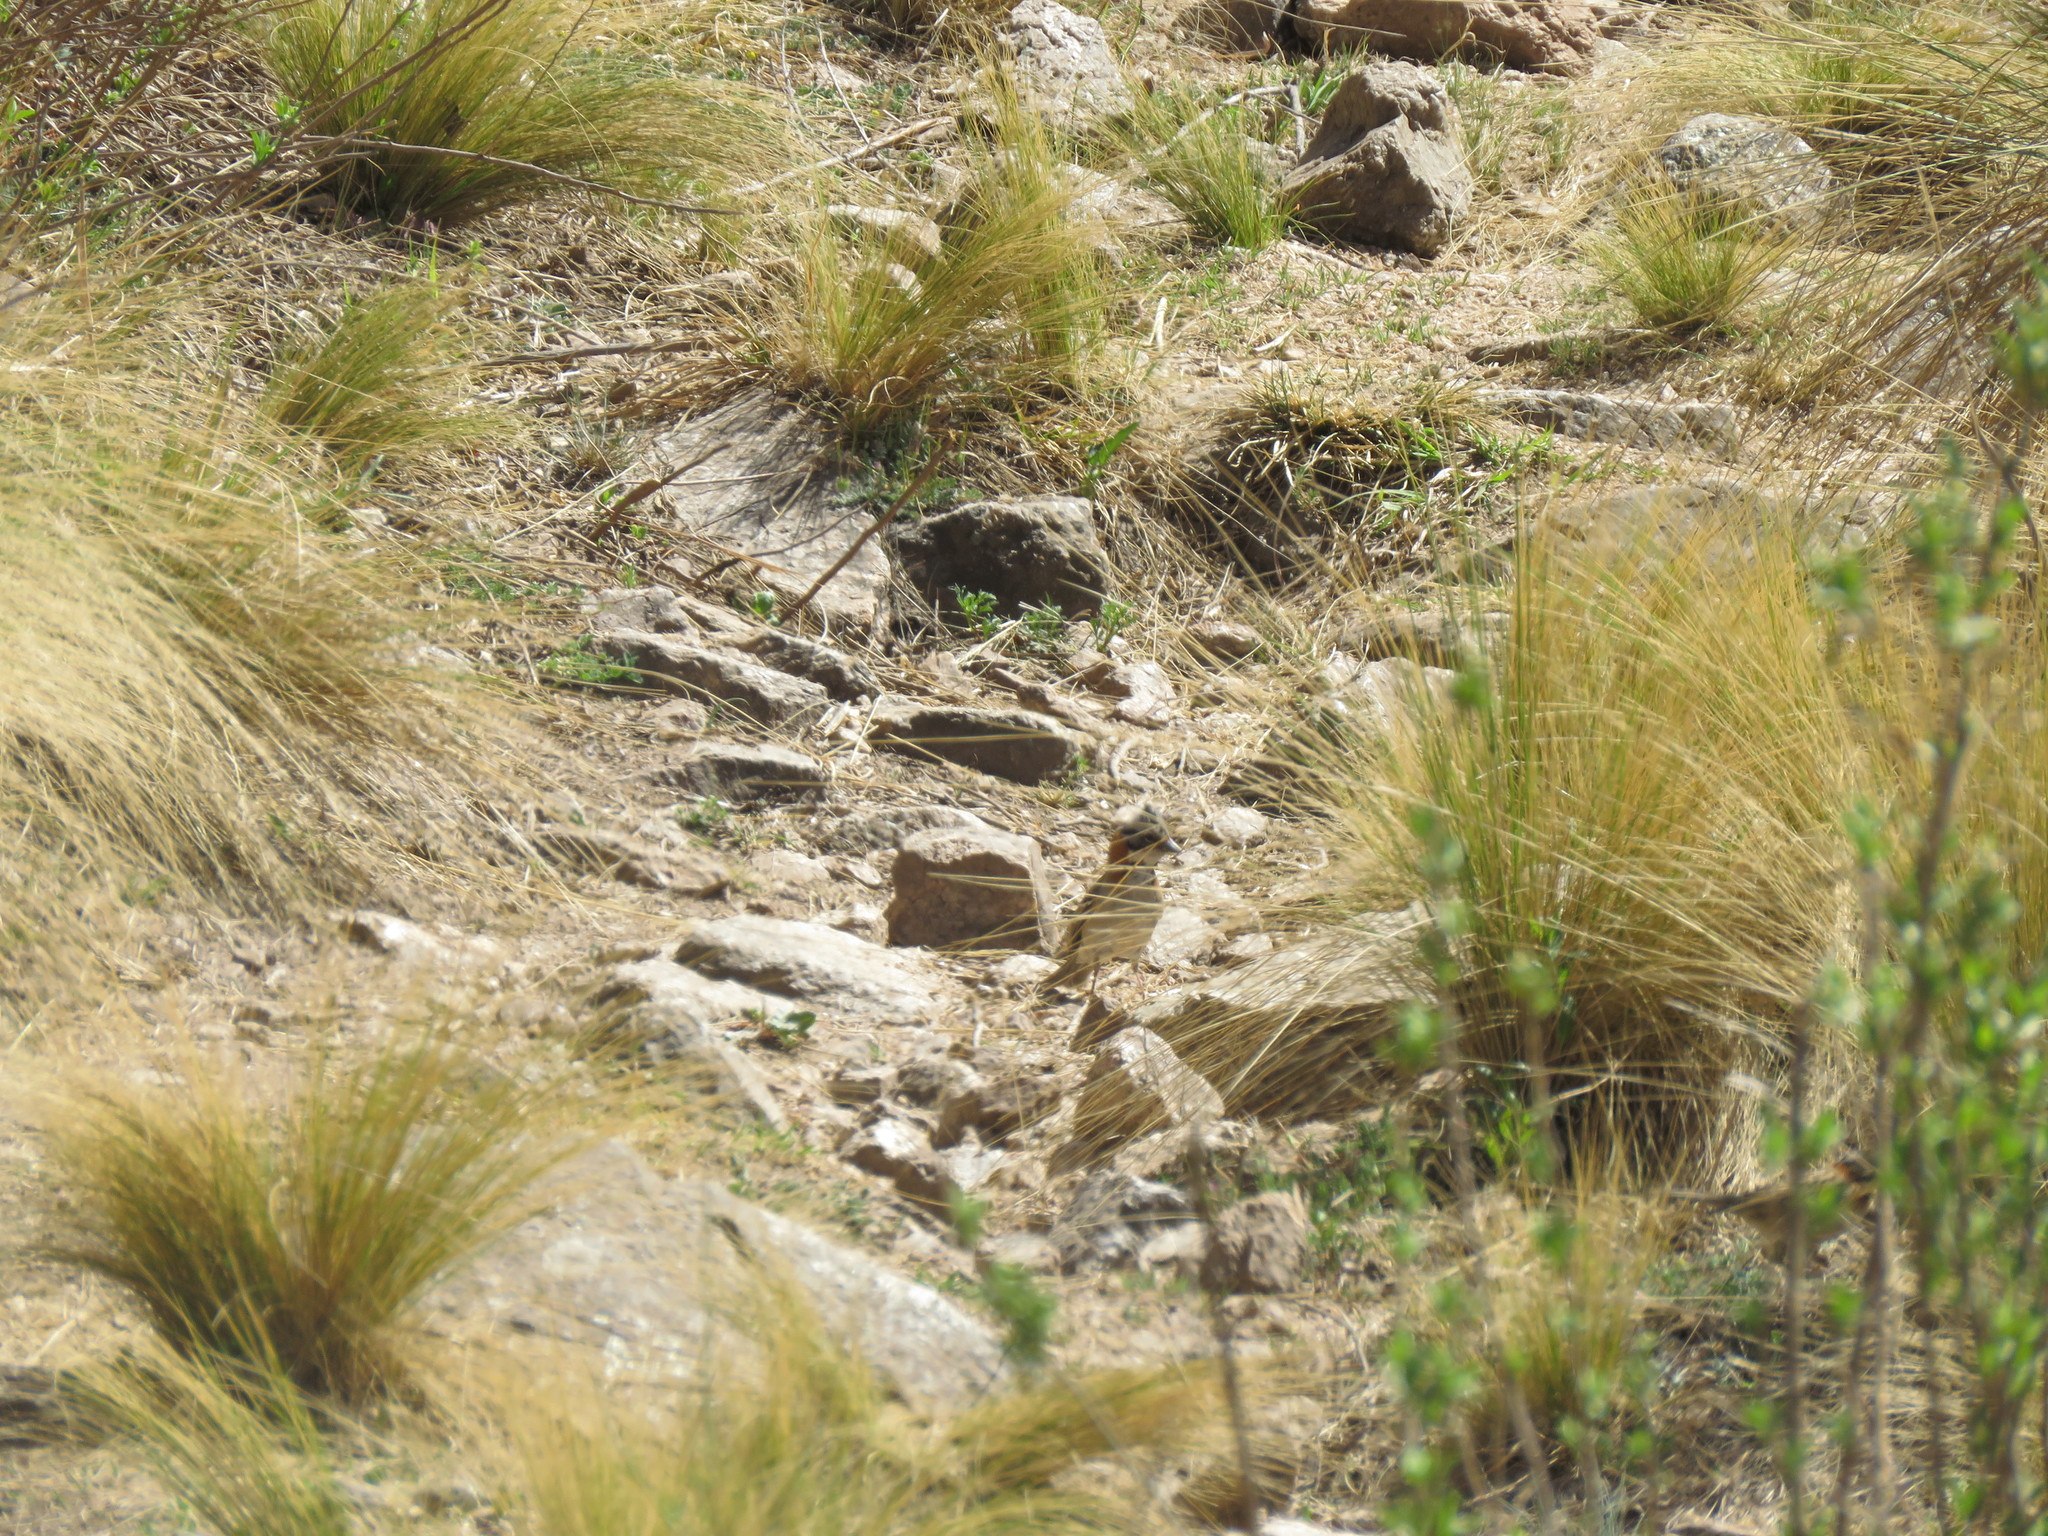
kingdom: Animalia
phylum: Chordata
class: Aves
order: Passeriformes
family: Passerellidae
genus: Zonotrichia
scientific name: Zonotrichia capensis
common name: Rufous-collared sparrow
